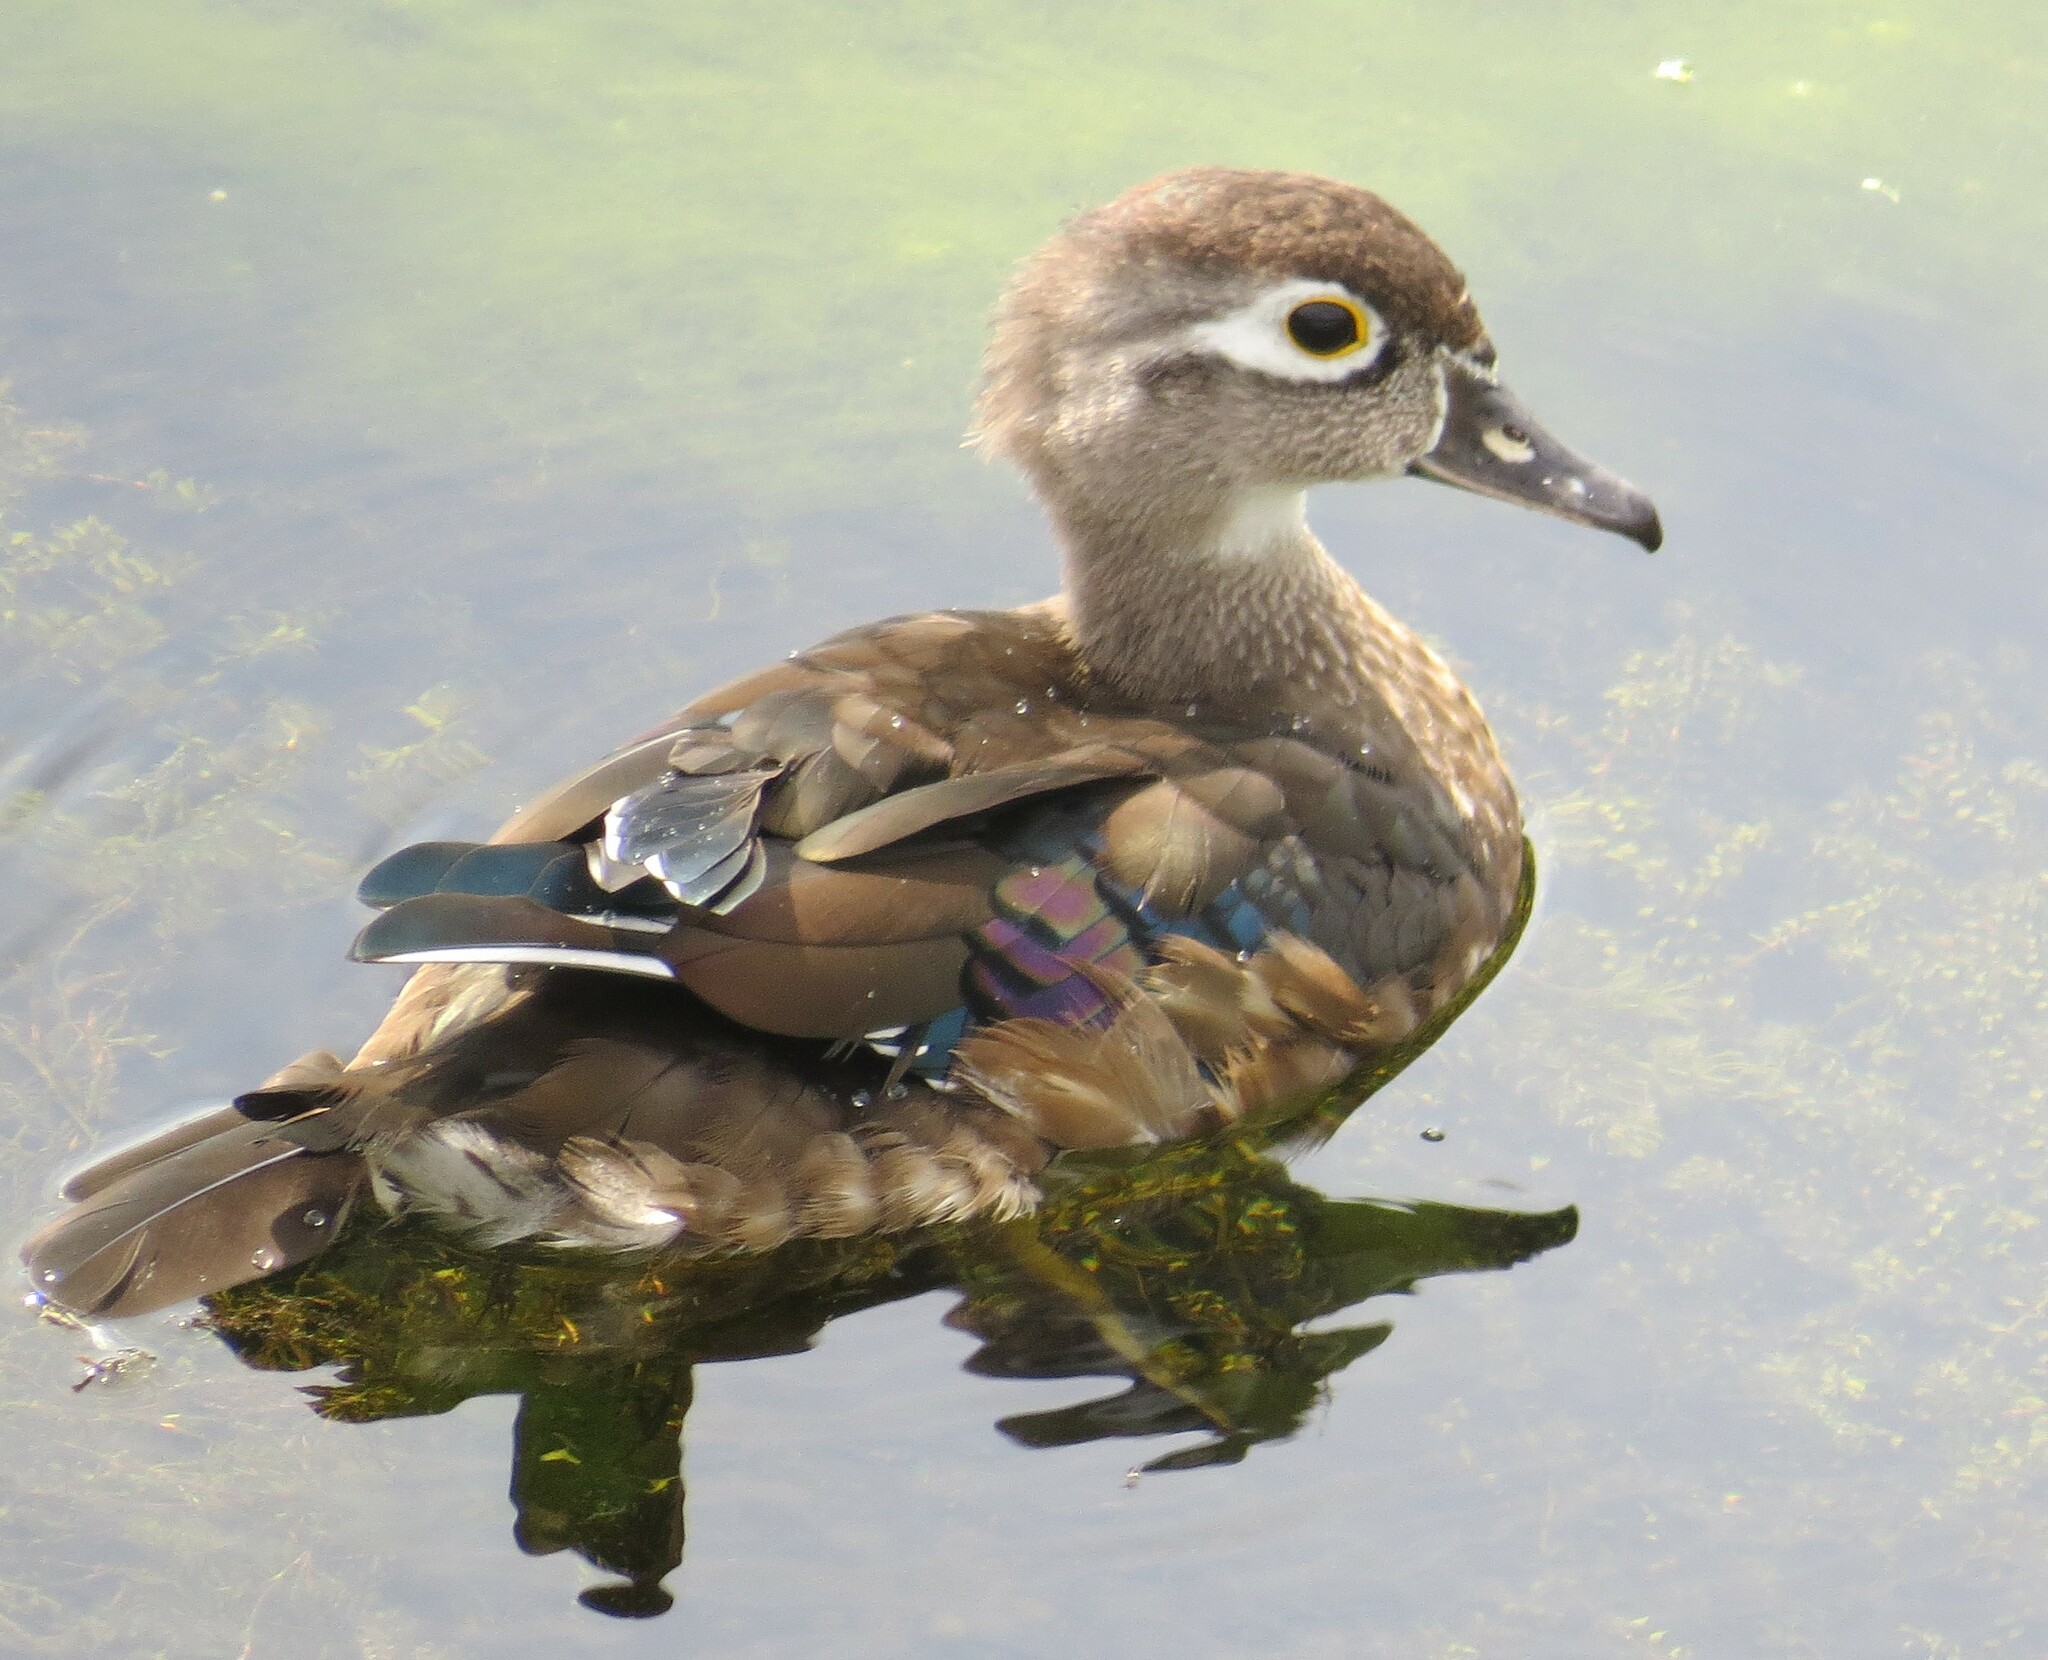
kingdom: Animalia
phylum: Chordata
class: Aves
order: Anseriformes
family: Anatidae
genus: Aix
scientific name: Aix sponsa
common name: Wood duck
